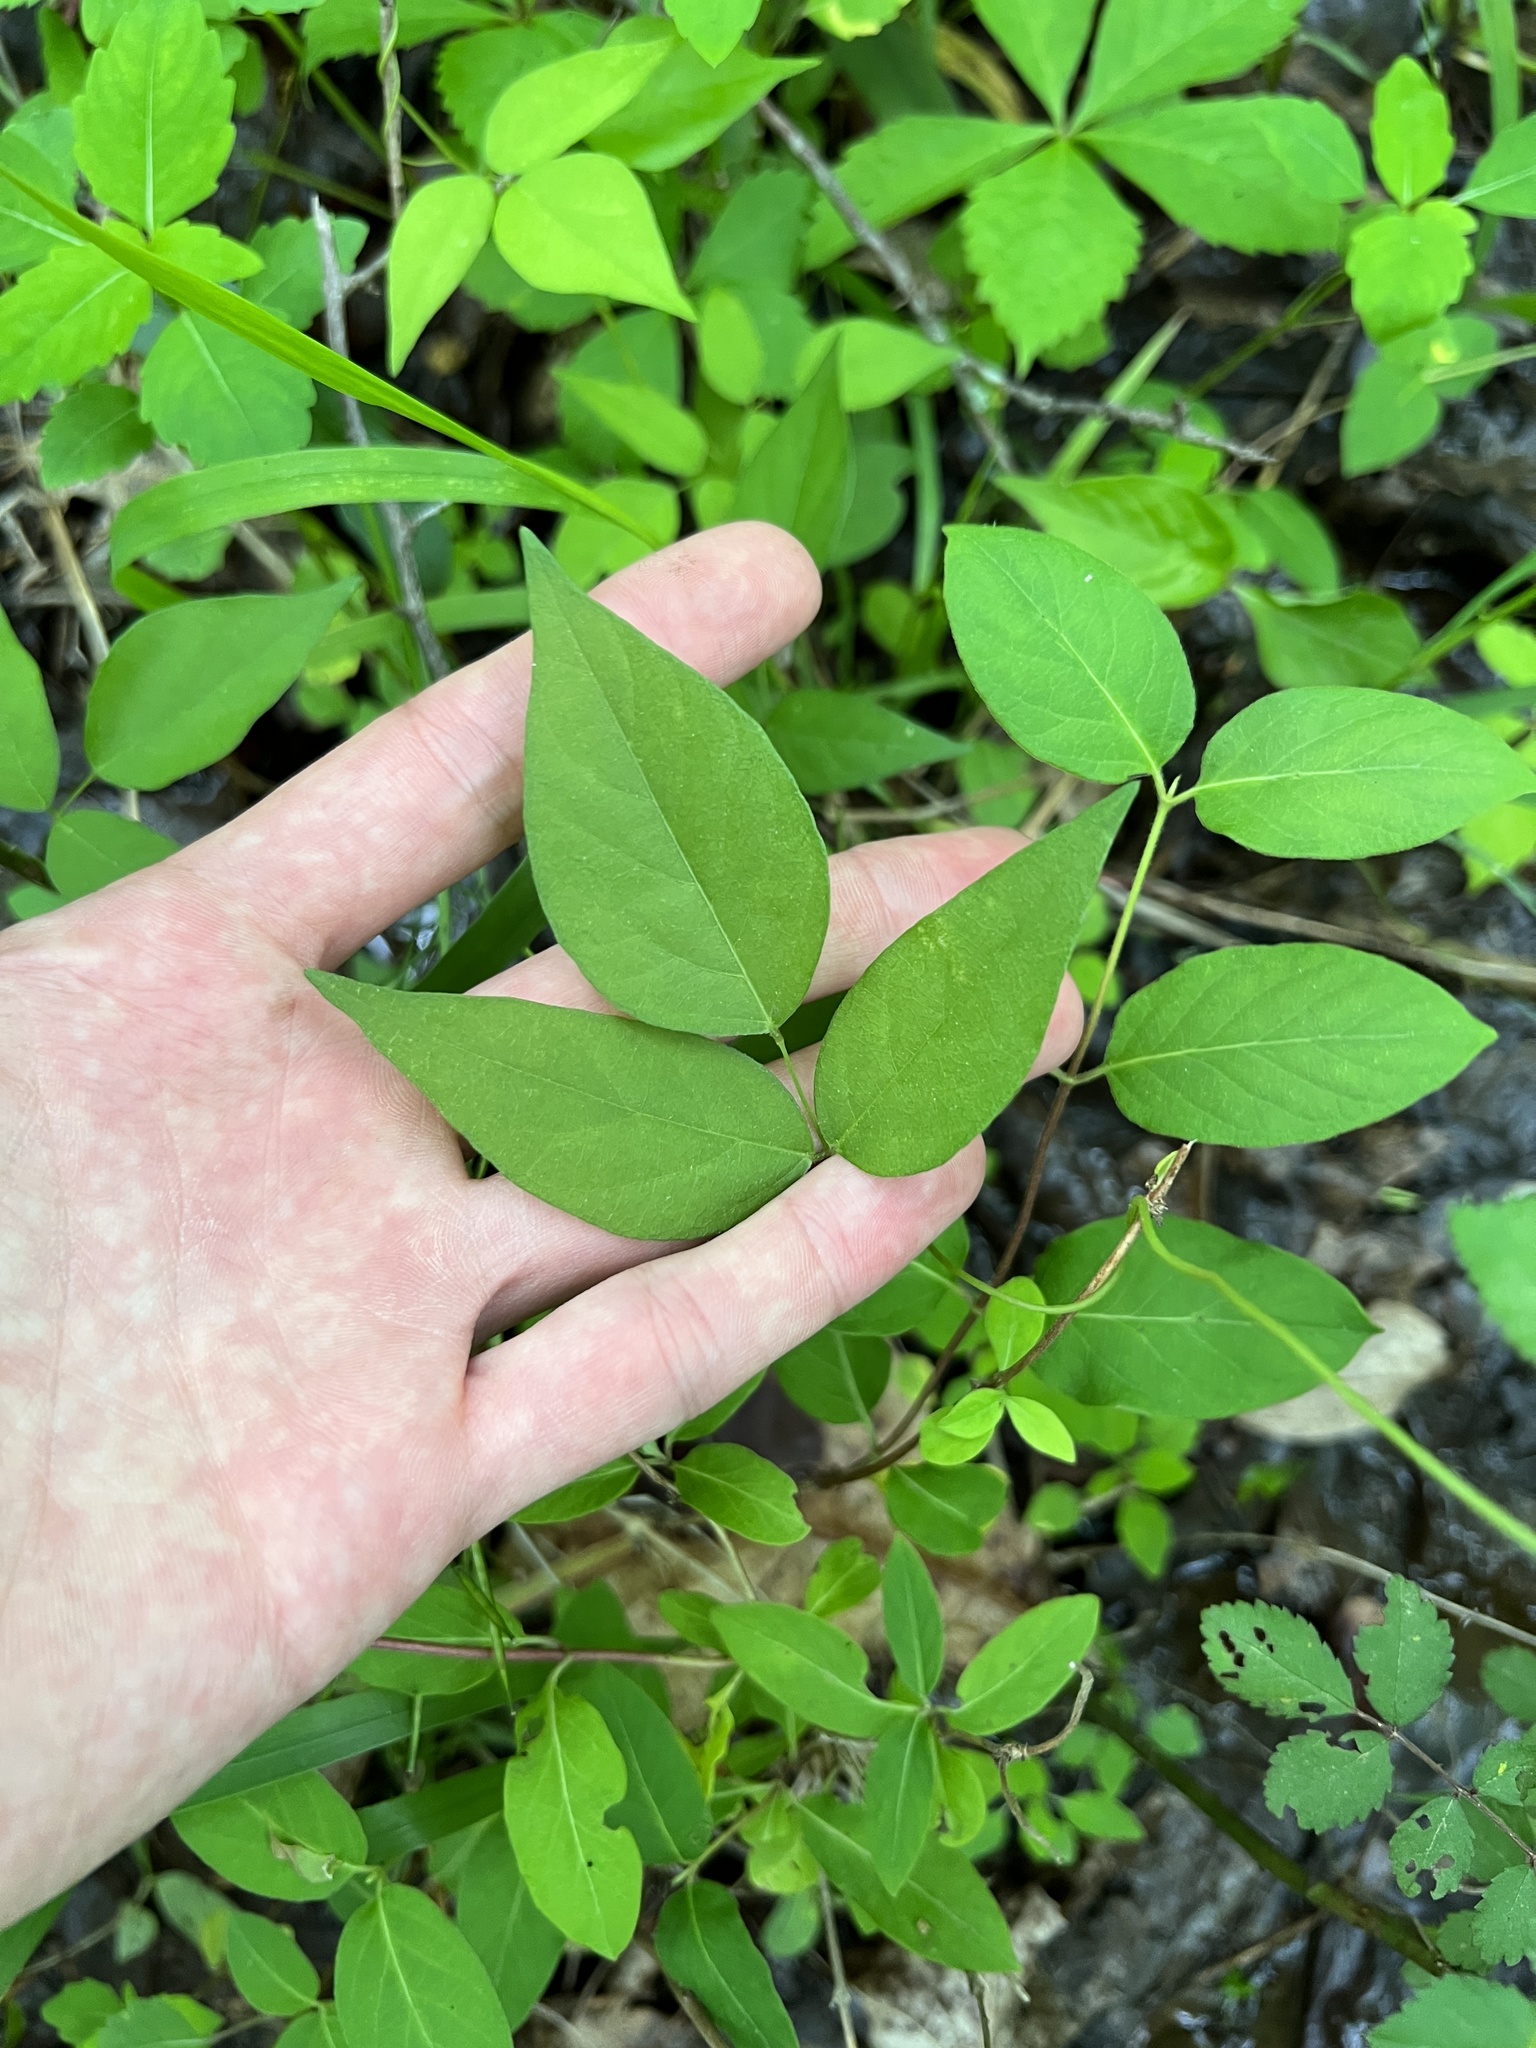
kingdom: Plantae
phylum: Tracheophyta
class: Magnoliopsida
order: Fabales
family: Fabaceae
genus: Apios
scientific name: Apios americana
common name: American potato-bean
